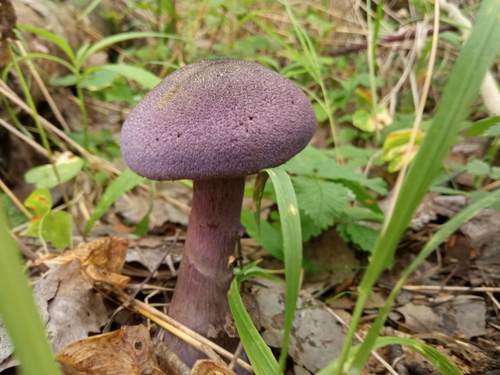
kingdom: Fungi
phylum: Basidiomycota
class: Agaricomycetes
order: Agaricales
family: Cortinariaceae
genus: Cortinarius
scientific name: Cortinarius violaceus
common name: Violet webcap
